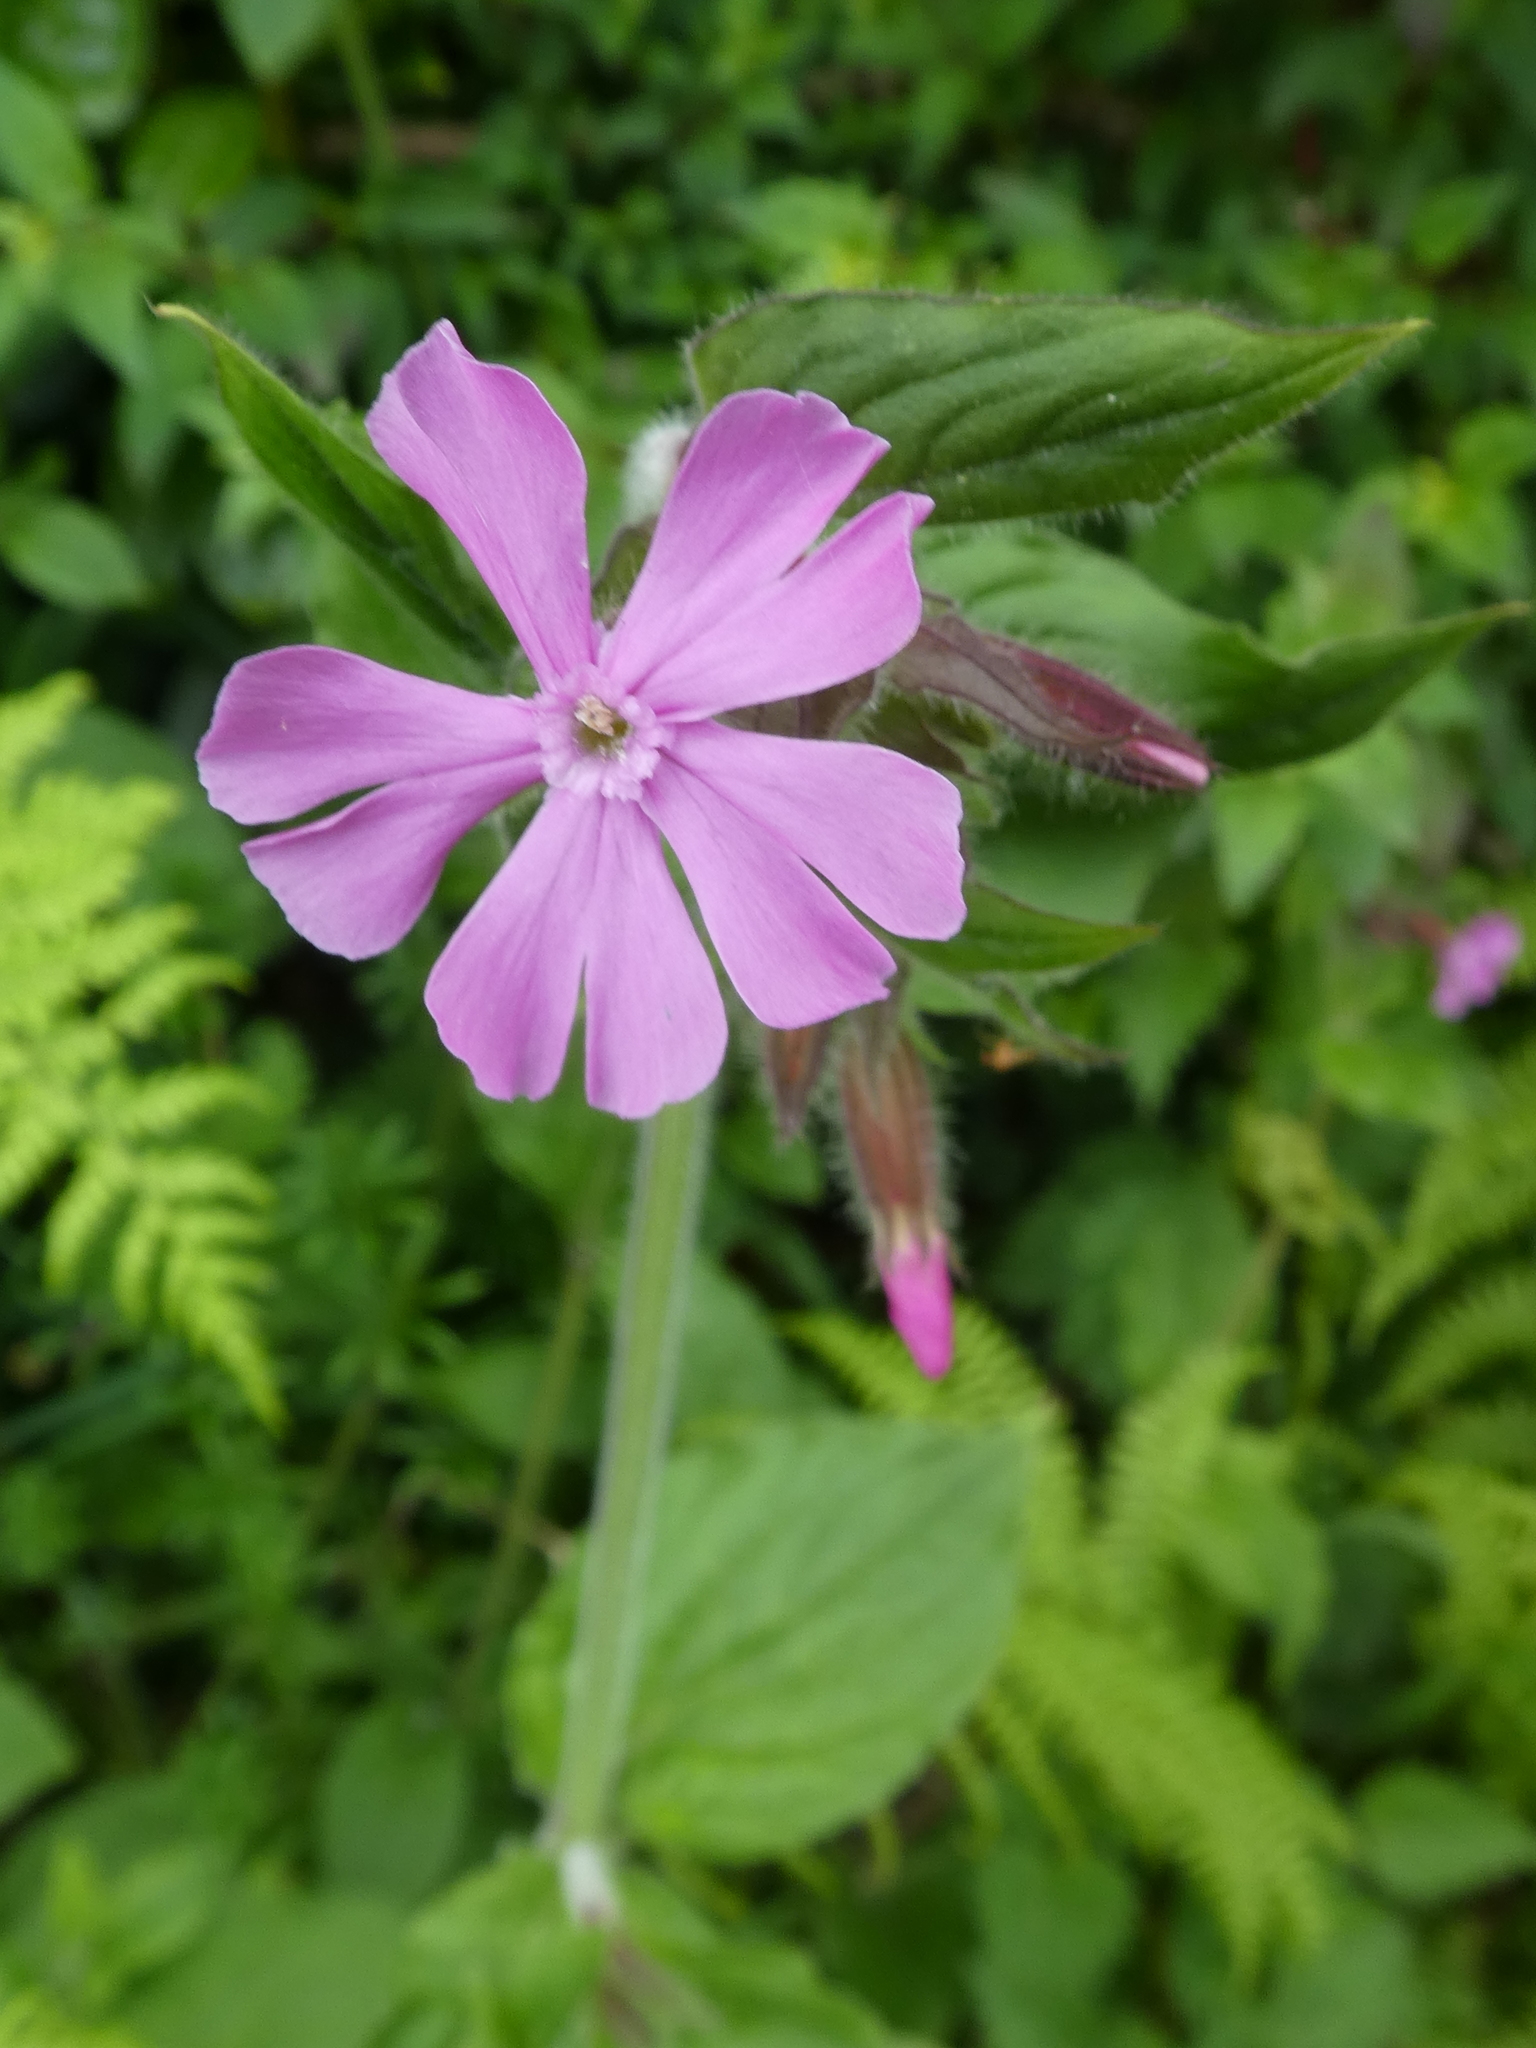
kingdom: Plantae
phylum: Tracheophyta
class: Magnoliopsida
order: Caryophyllales
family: Caryophyllaceae
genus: Silene
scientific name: Silene dioica
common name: Red campion
